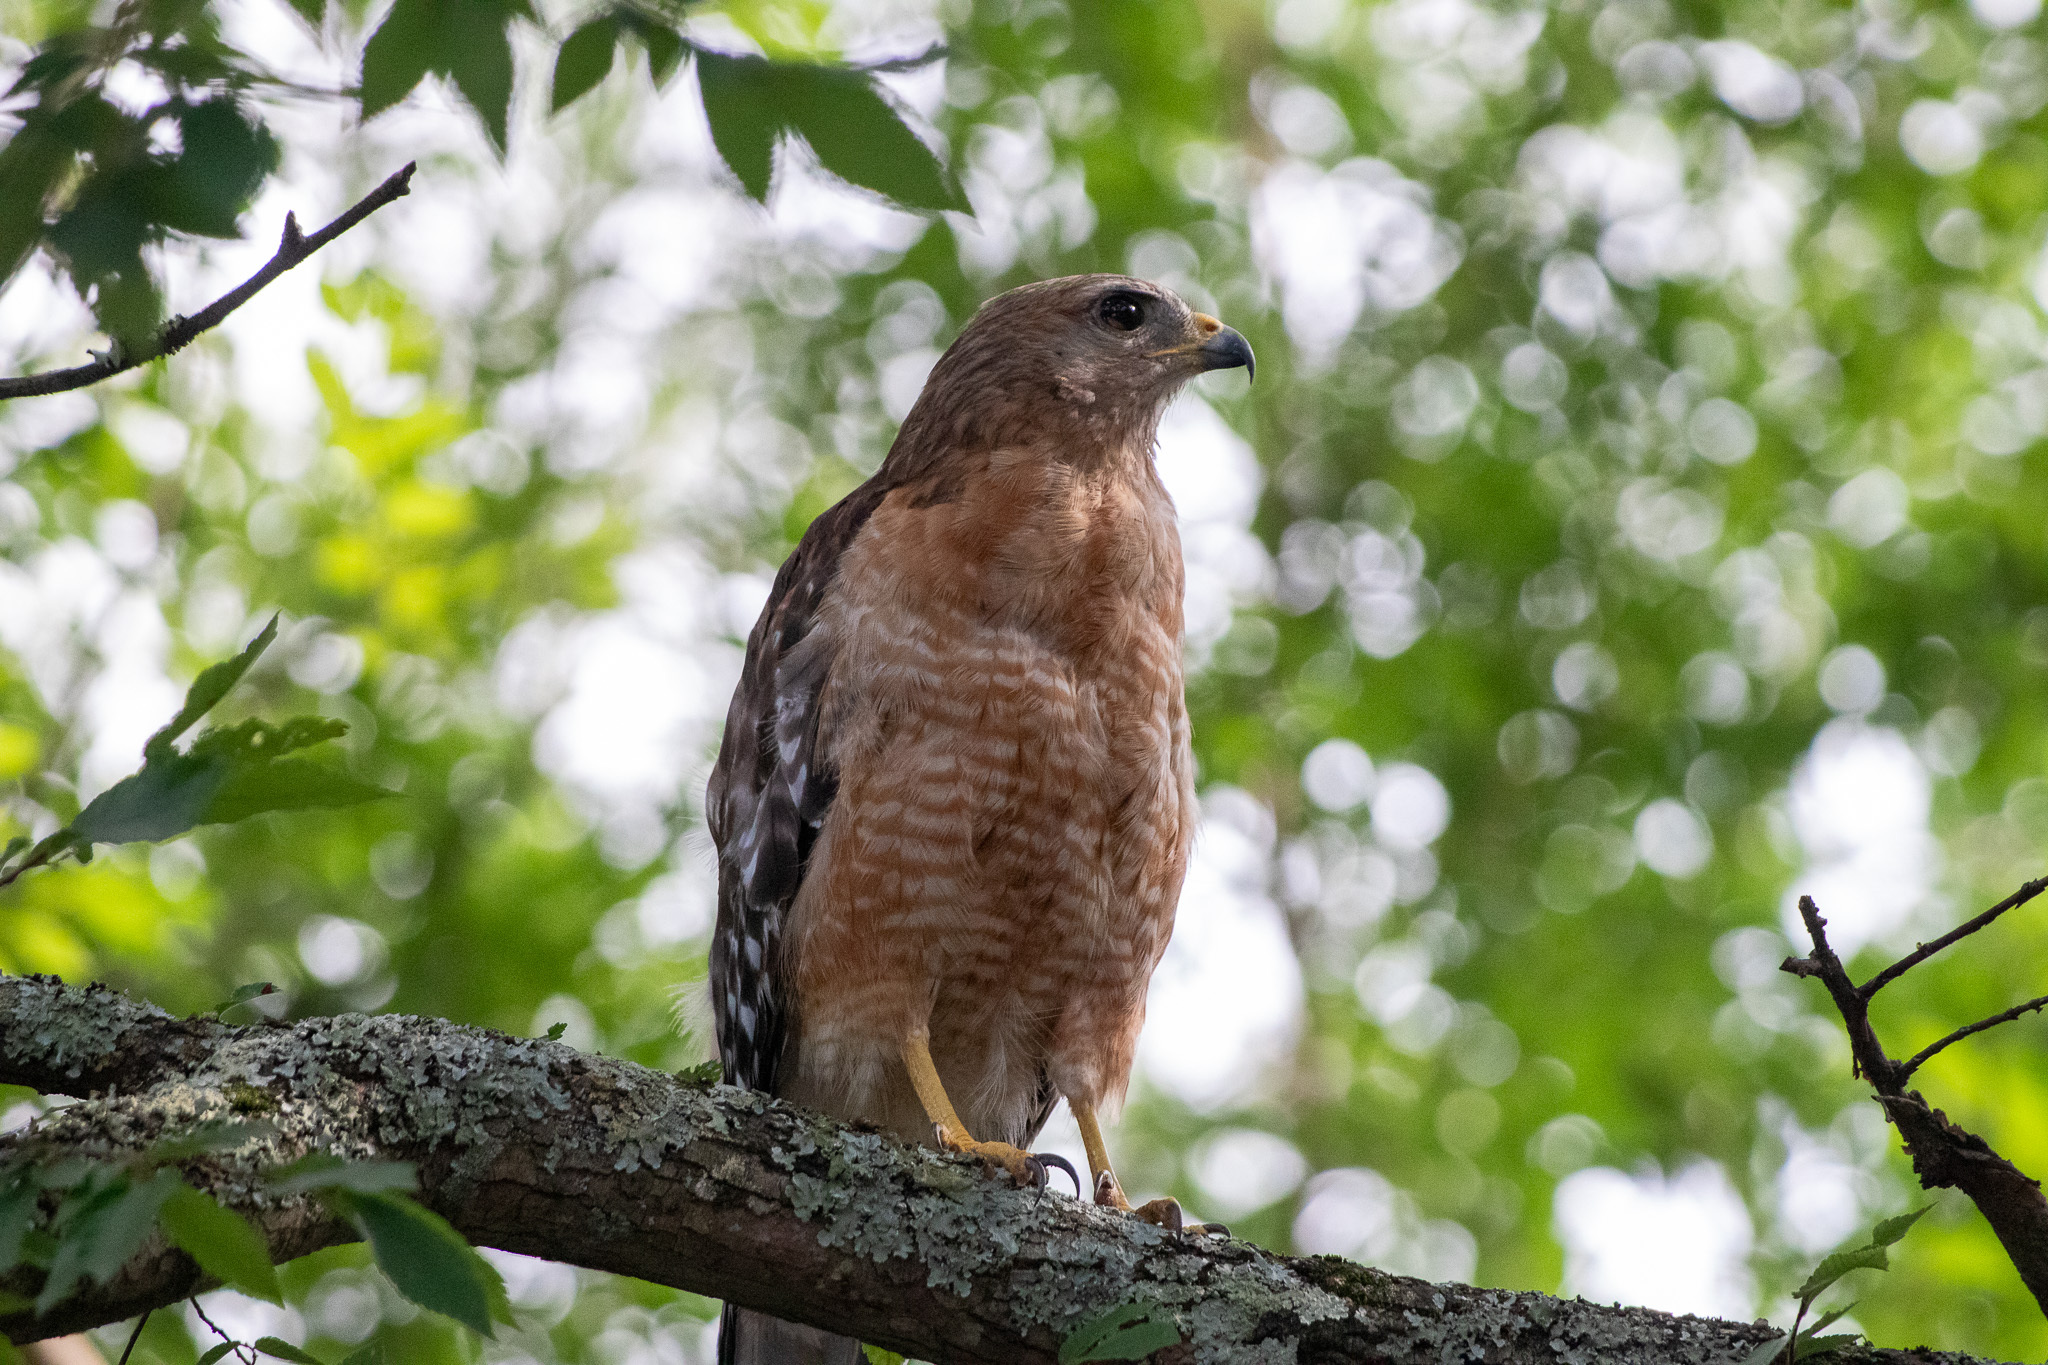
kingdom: Animalia
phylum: Chordata
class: Aves
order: Accipitriformes
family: Accipitridae
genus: Buteo
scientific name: Buteo lineatus
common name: Red-shouldered hawk
